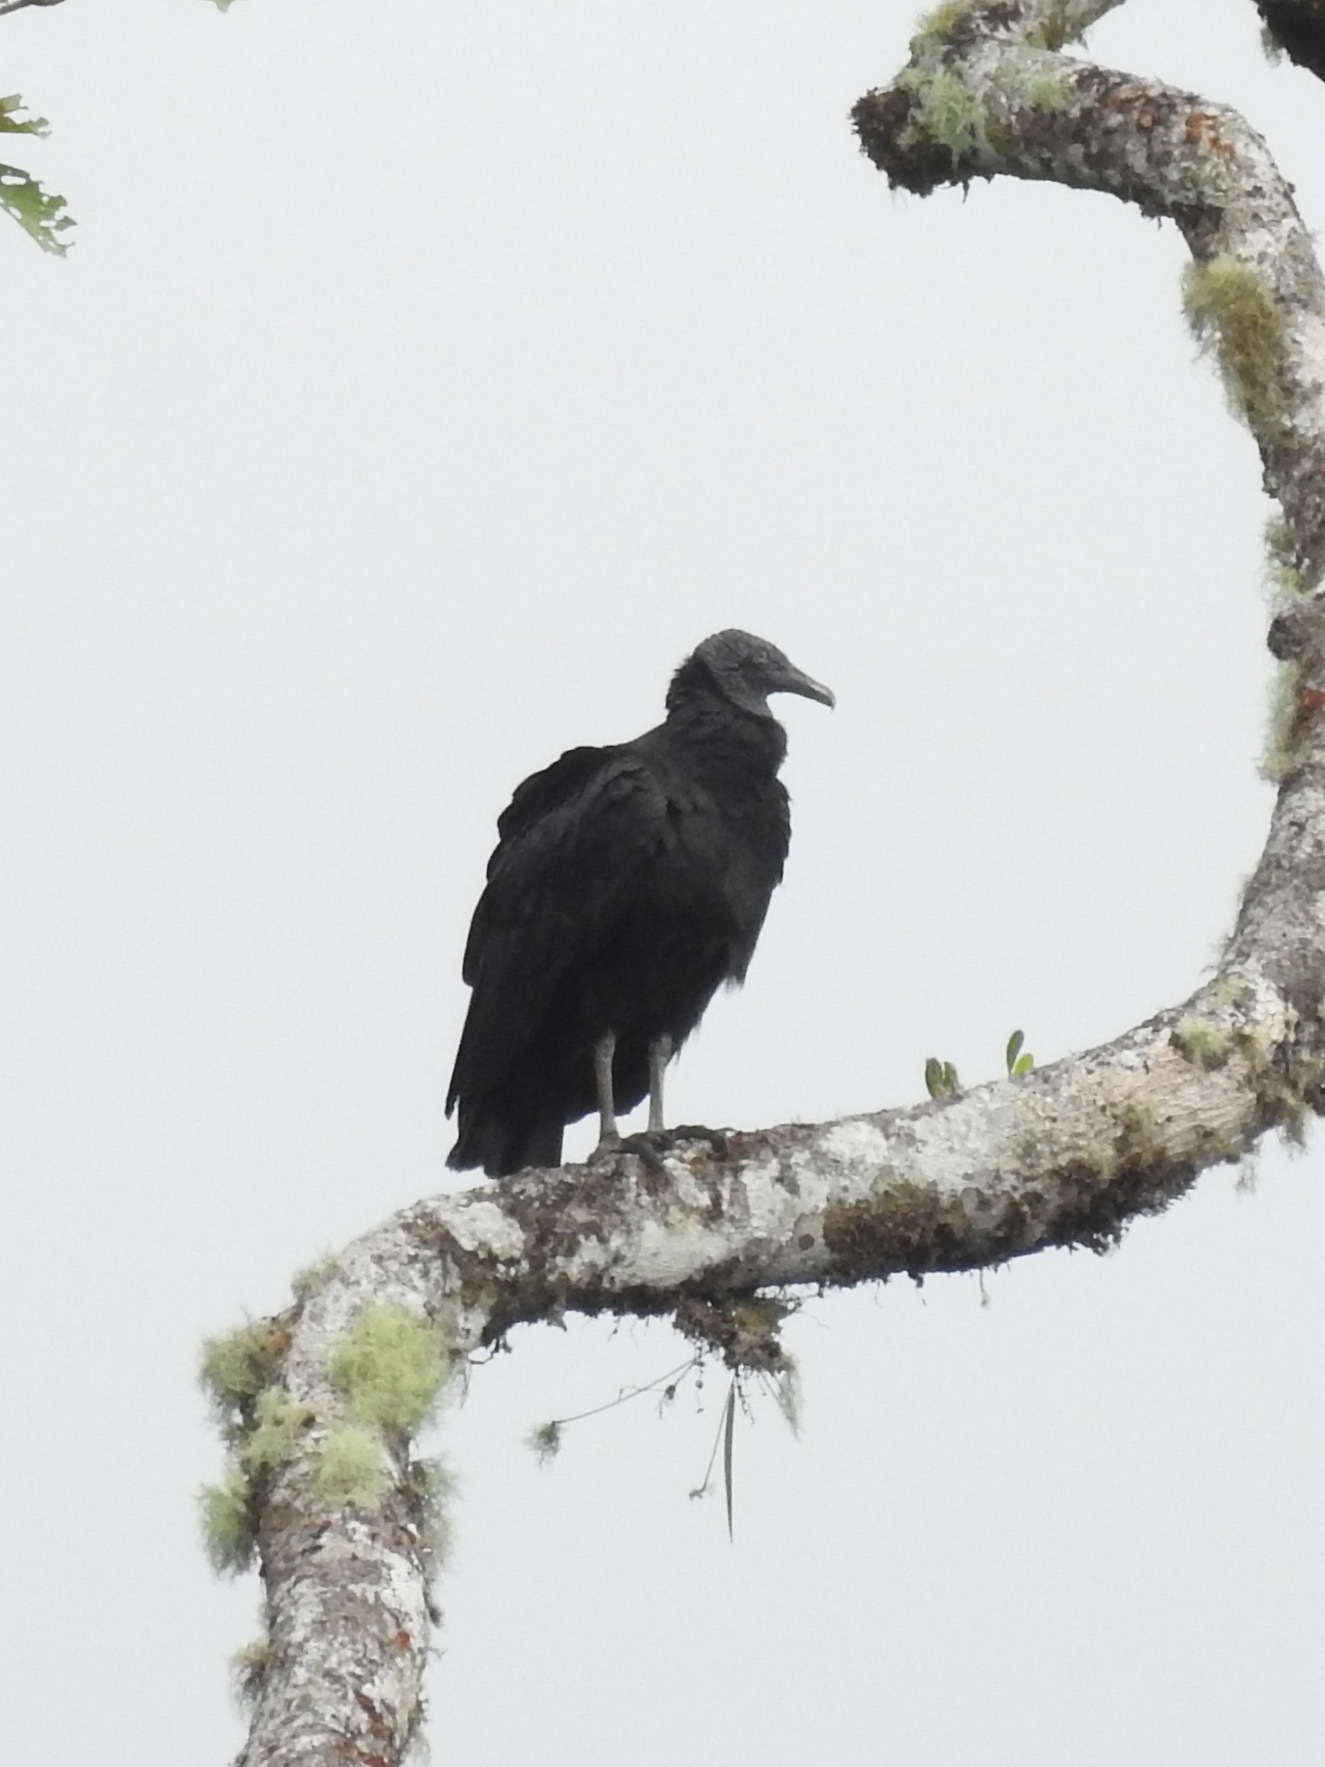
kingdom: Animalia
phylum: Chordata
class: Aves
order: Accipitriformes
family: Cathartidae
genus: Coragyps
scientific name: Coragyps atratus
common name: Black vulture
